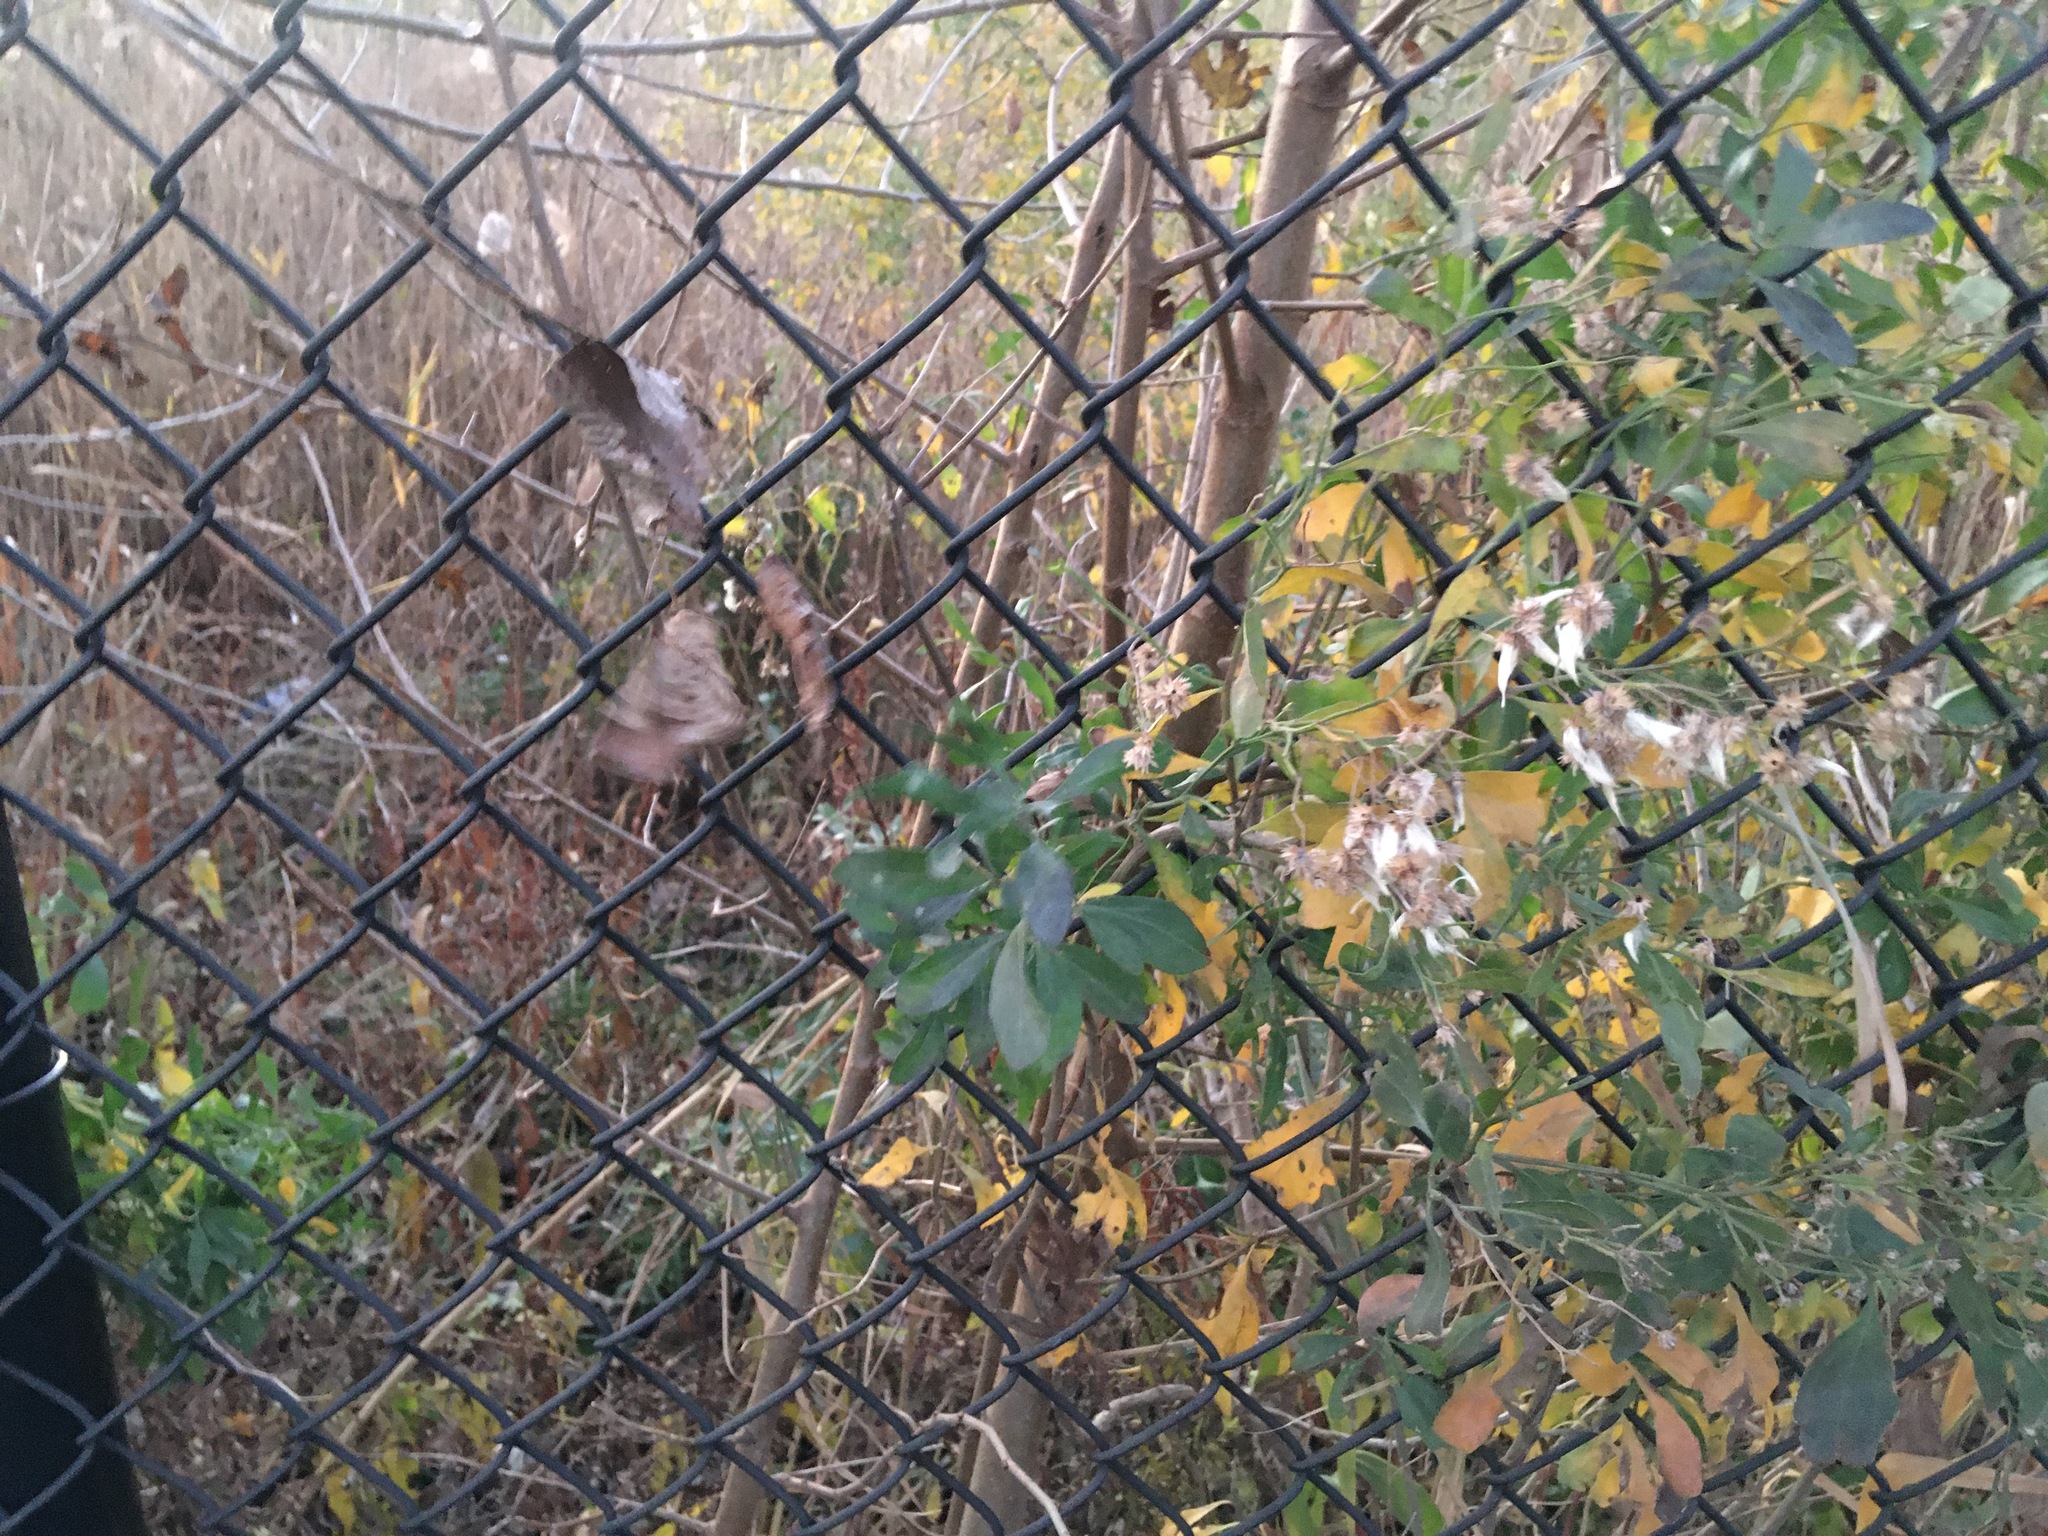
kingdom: Plantae
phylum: Tracheophyta
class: Magnoliopsida
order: Asterales
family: Asteraceae
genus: Baccharis
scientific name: Baccharis halimifolia
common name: Eastern baccharis
